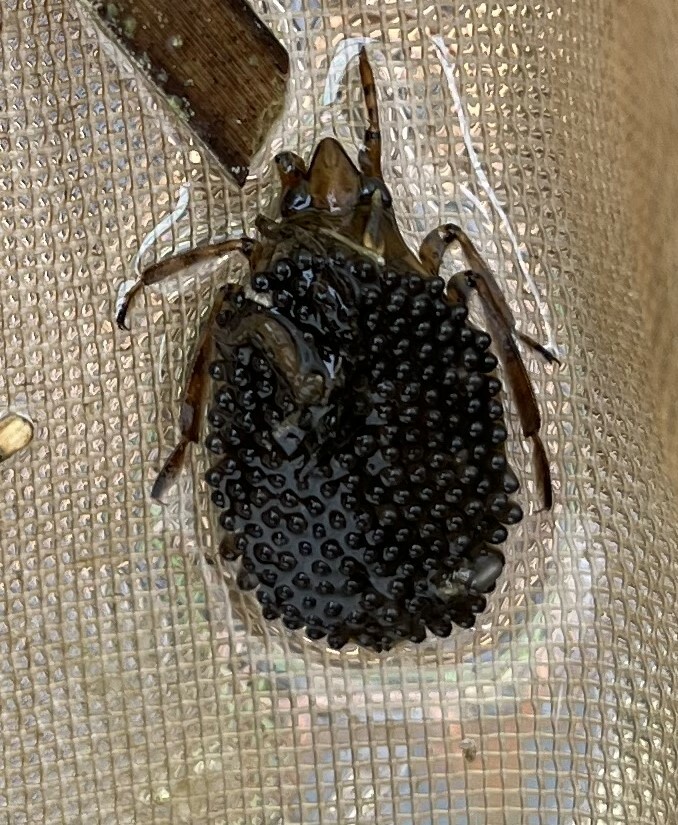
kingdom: Animalia
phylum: Arthropoda
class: Insecta
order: Hemiptera
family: Belostomatidae
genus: Belostoma
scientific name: Belostoma lutarium
